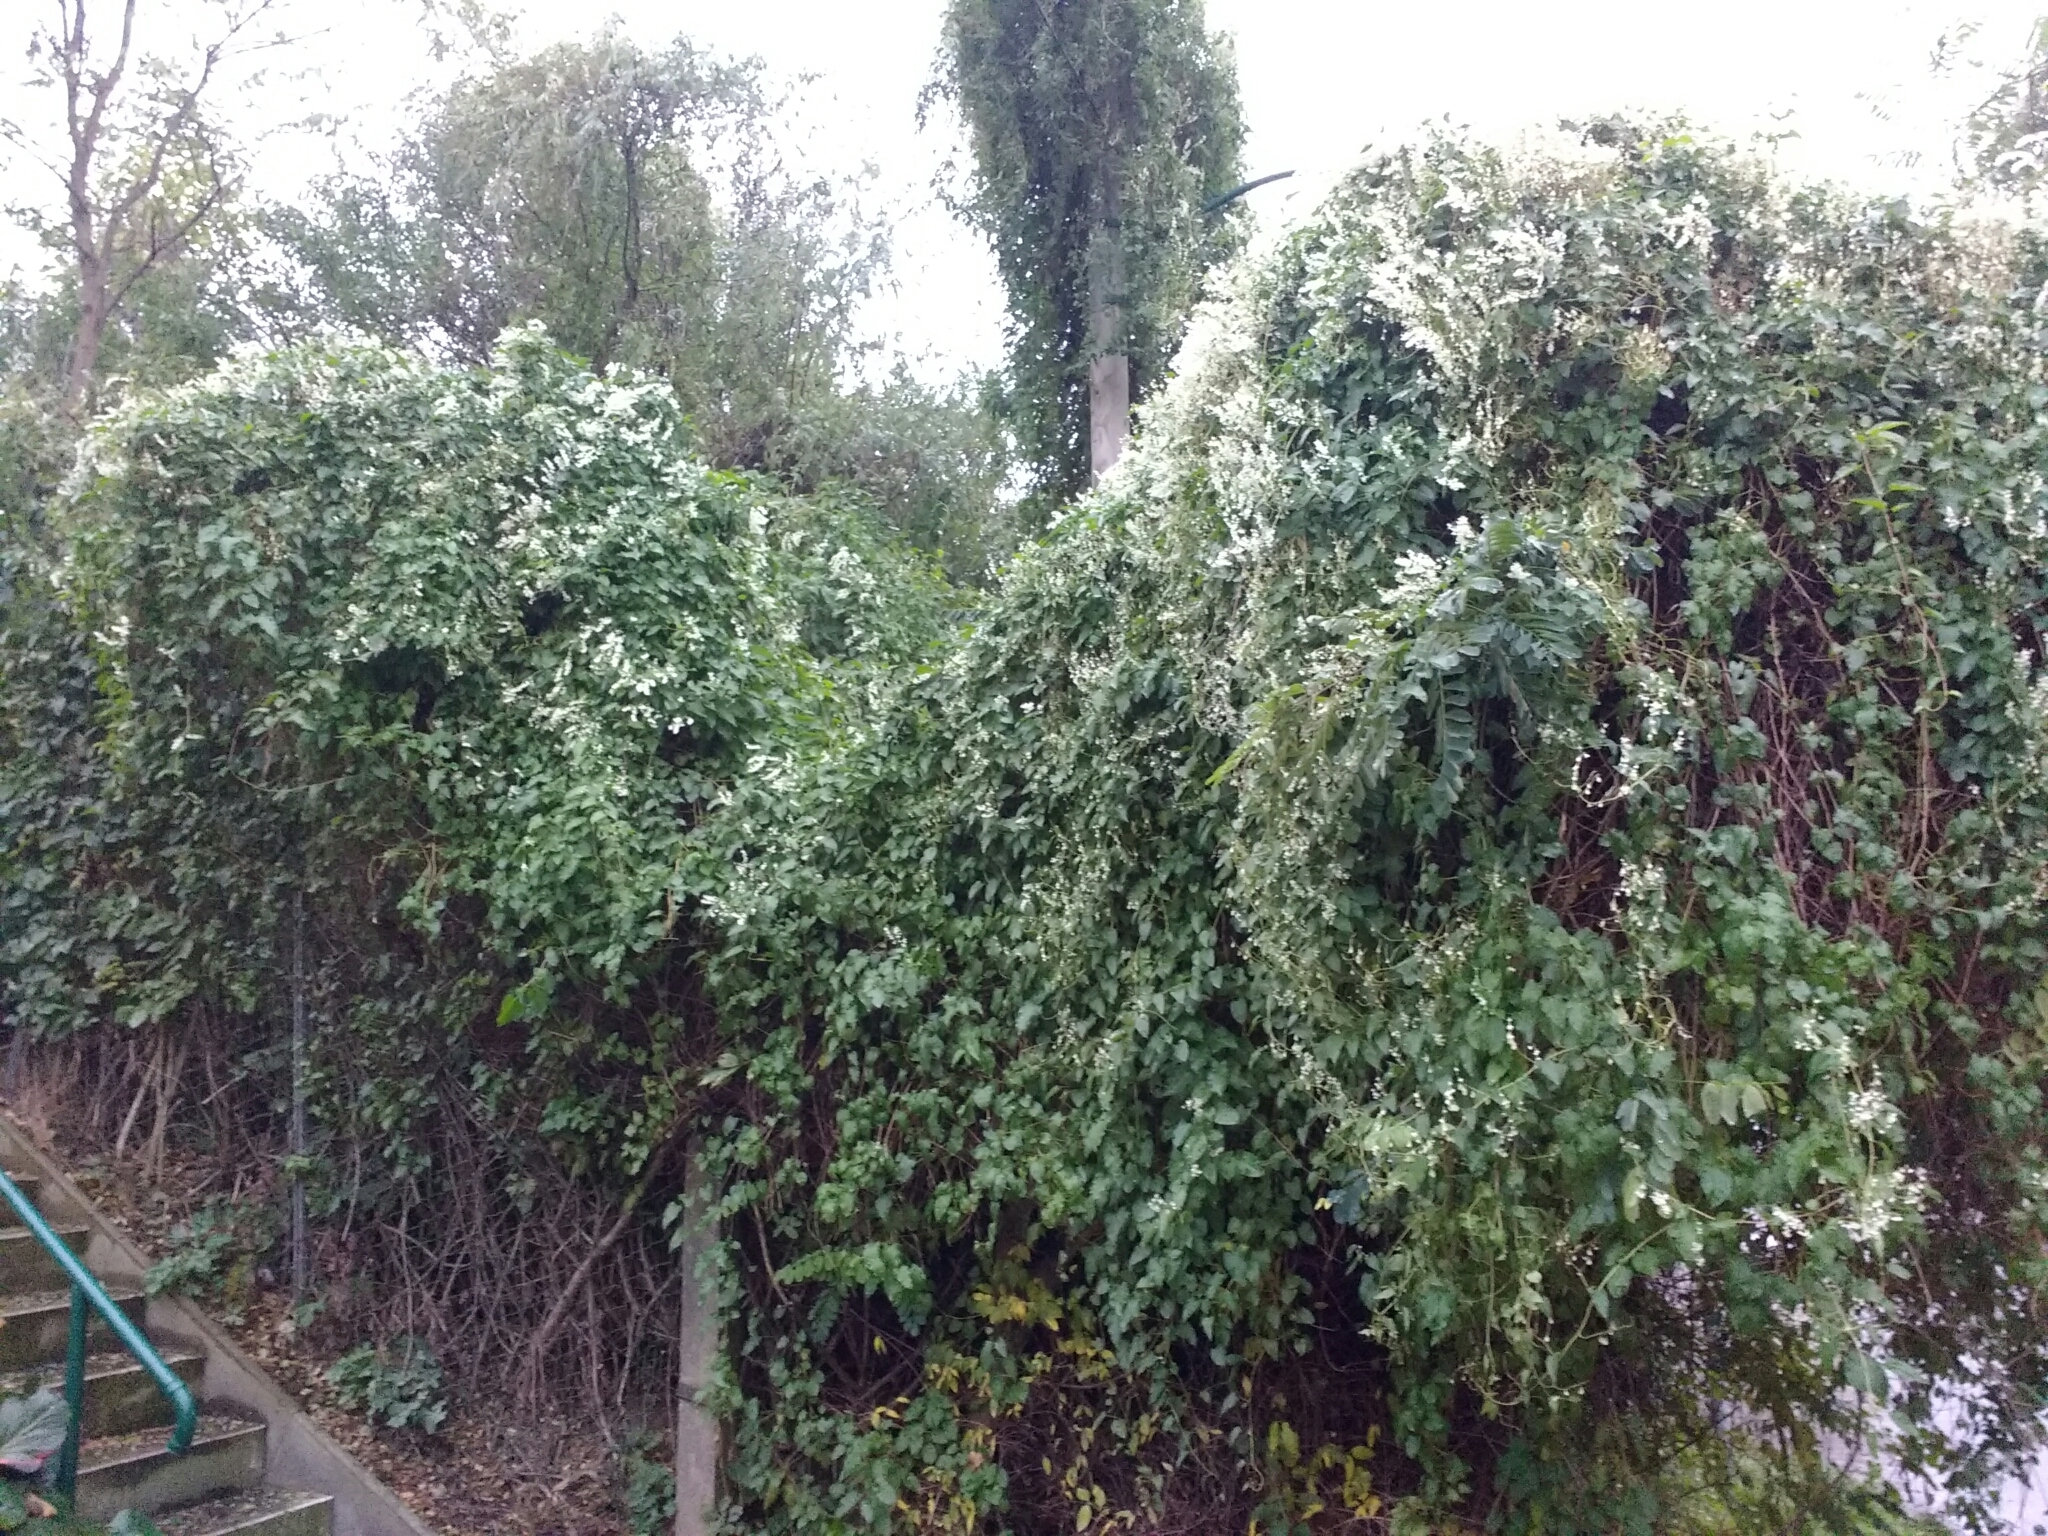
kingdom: Plantae
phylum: Tracheophyta
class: Magnoliopsida
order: Caryophyllales
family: Polygonaceae
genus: Fallopia
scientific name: Fallopia baldschuanica
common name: Russian-vine
